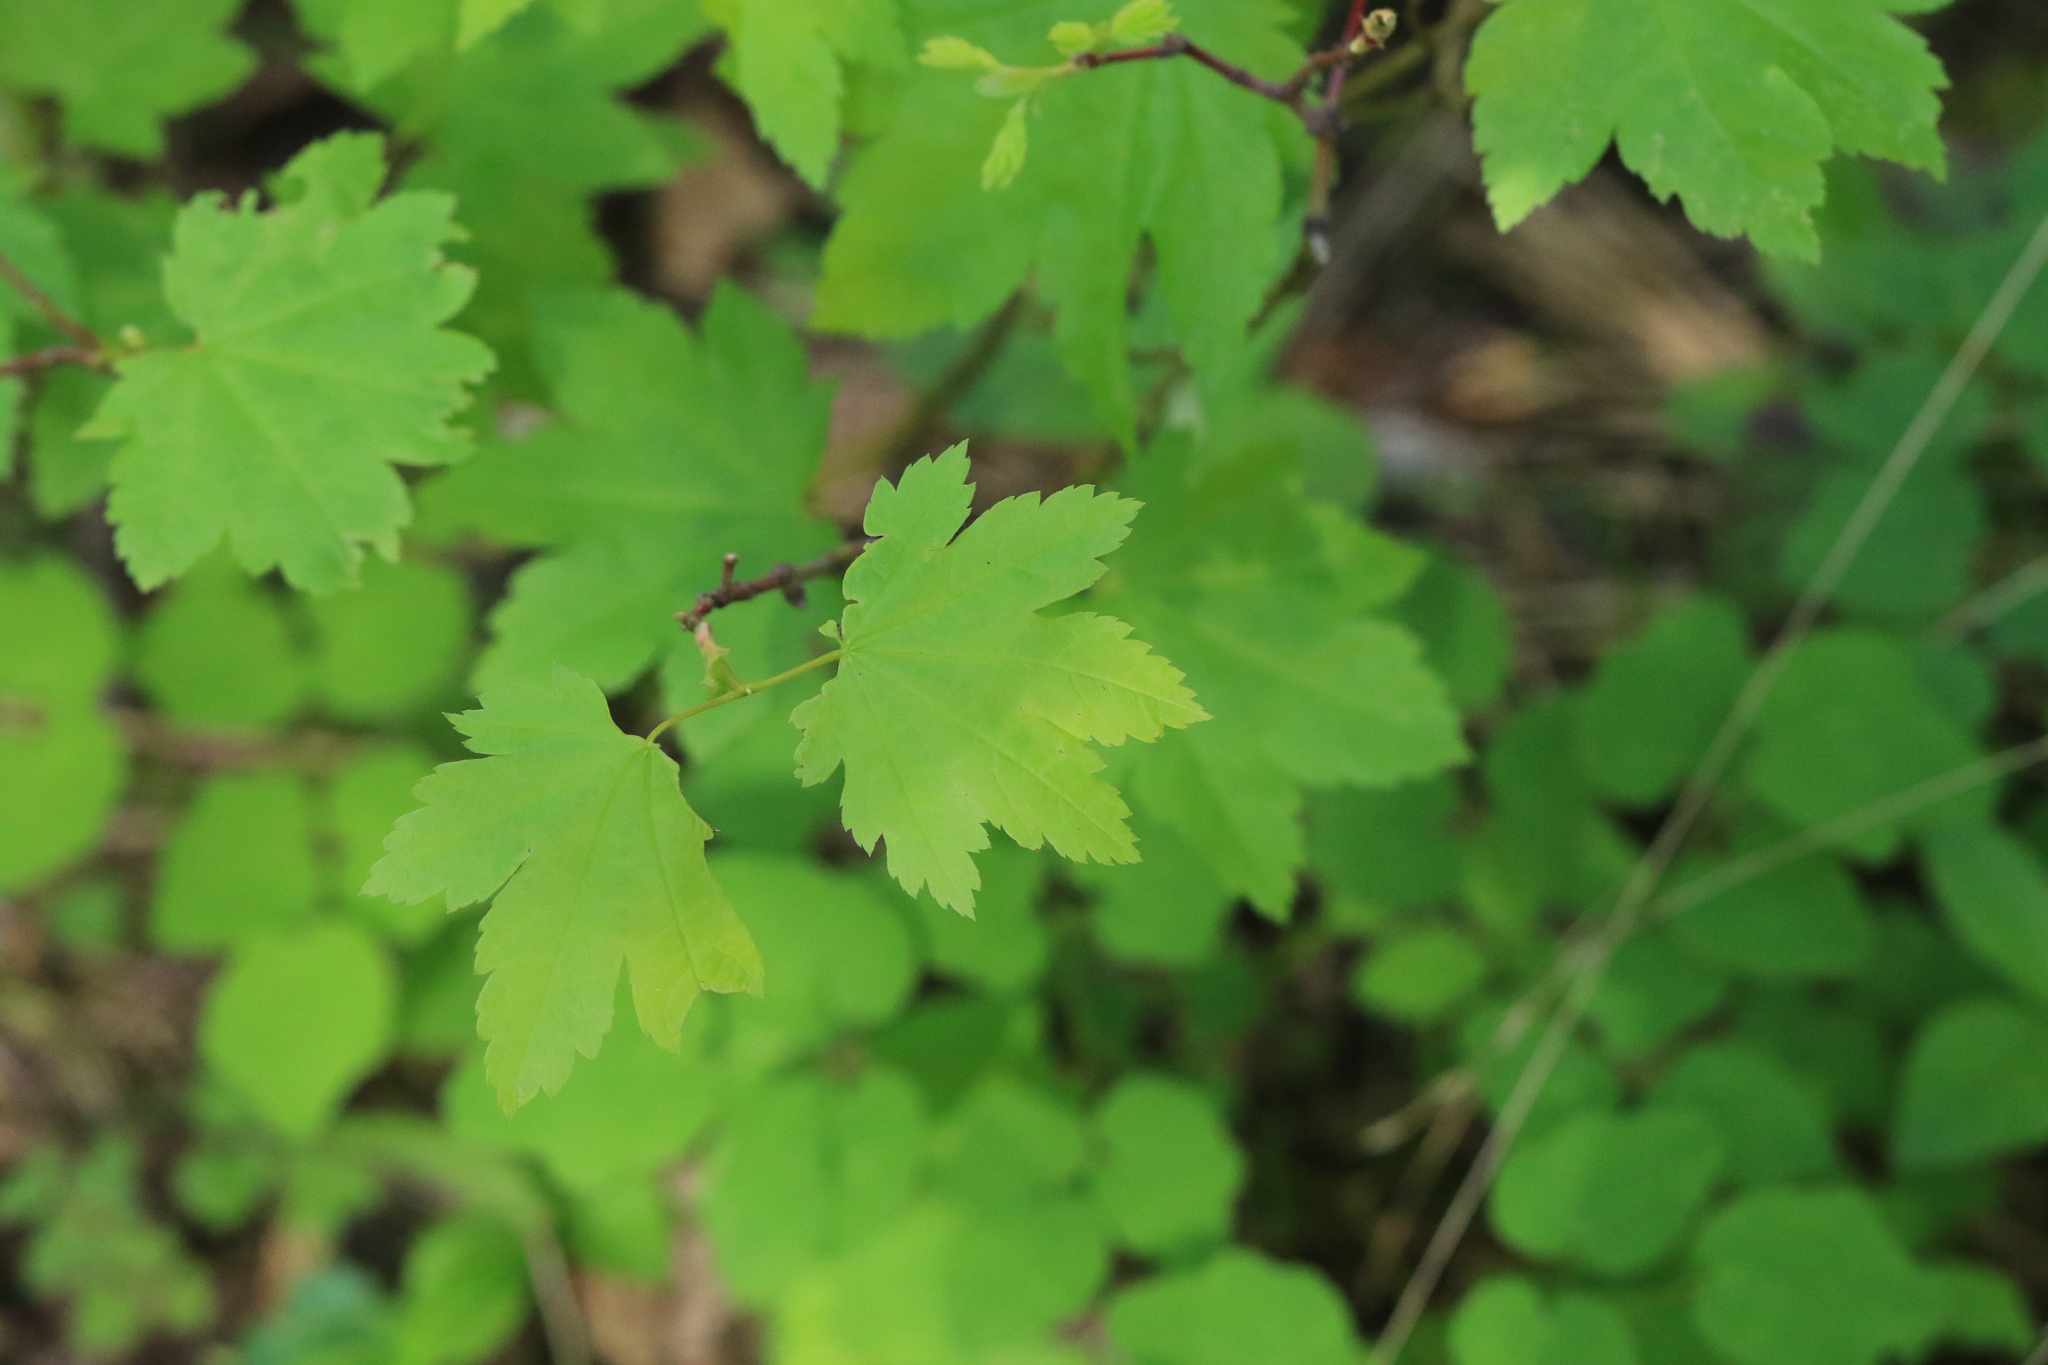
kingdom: Plantae
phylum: Tracheophyta
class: Magnoliopsida
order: Sapindales
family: Sapindaceae
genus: Acer
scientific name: Acer circinatum
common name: Vine maple
